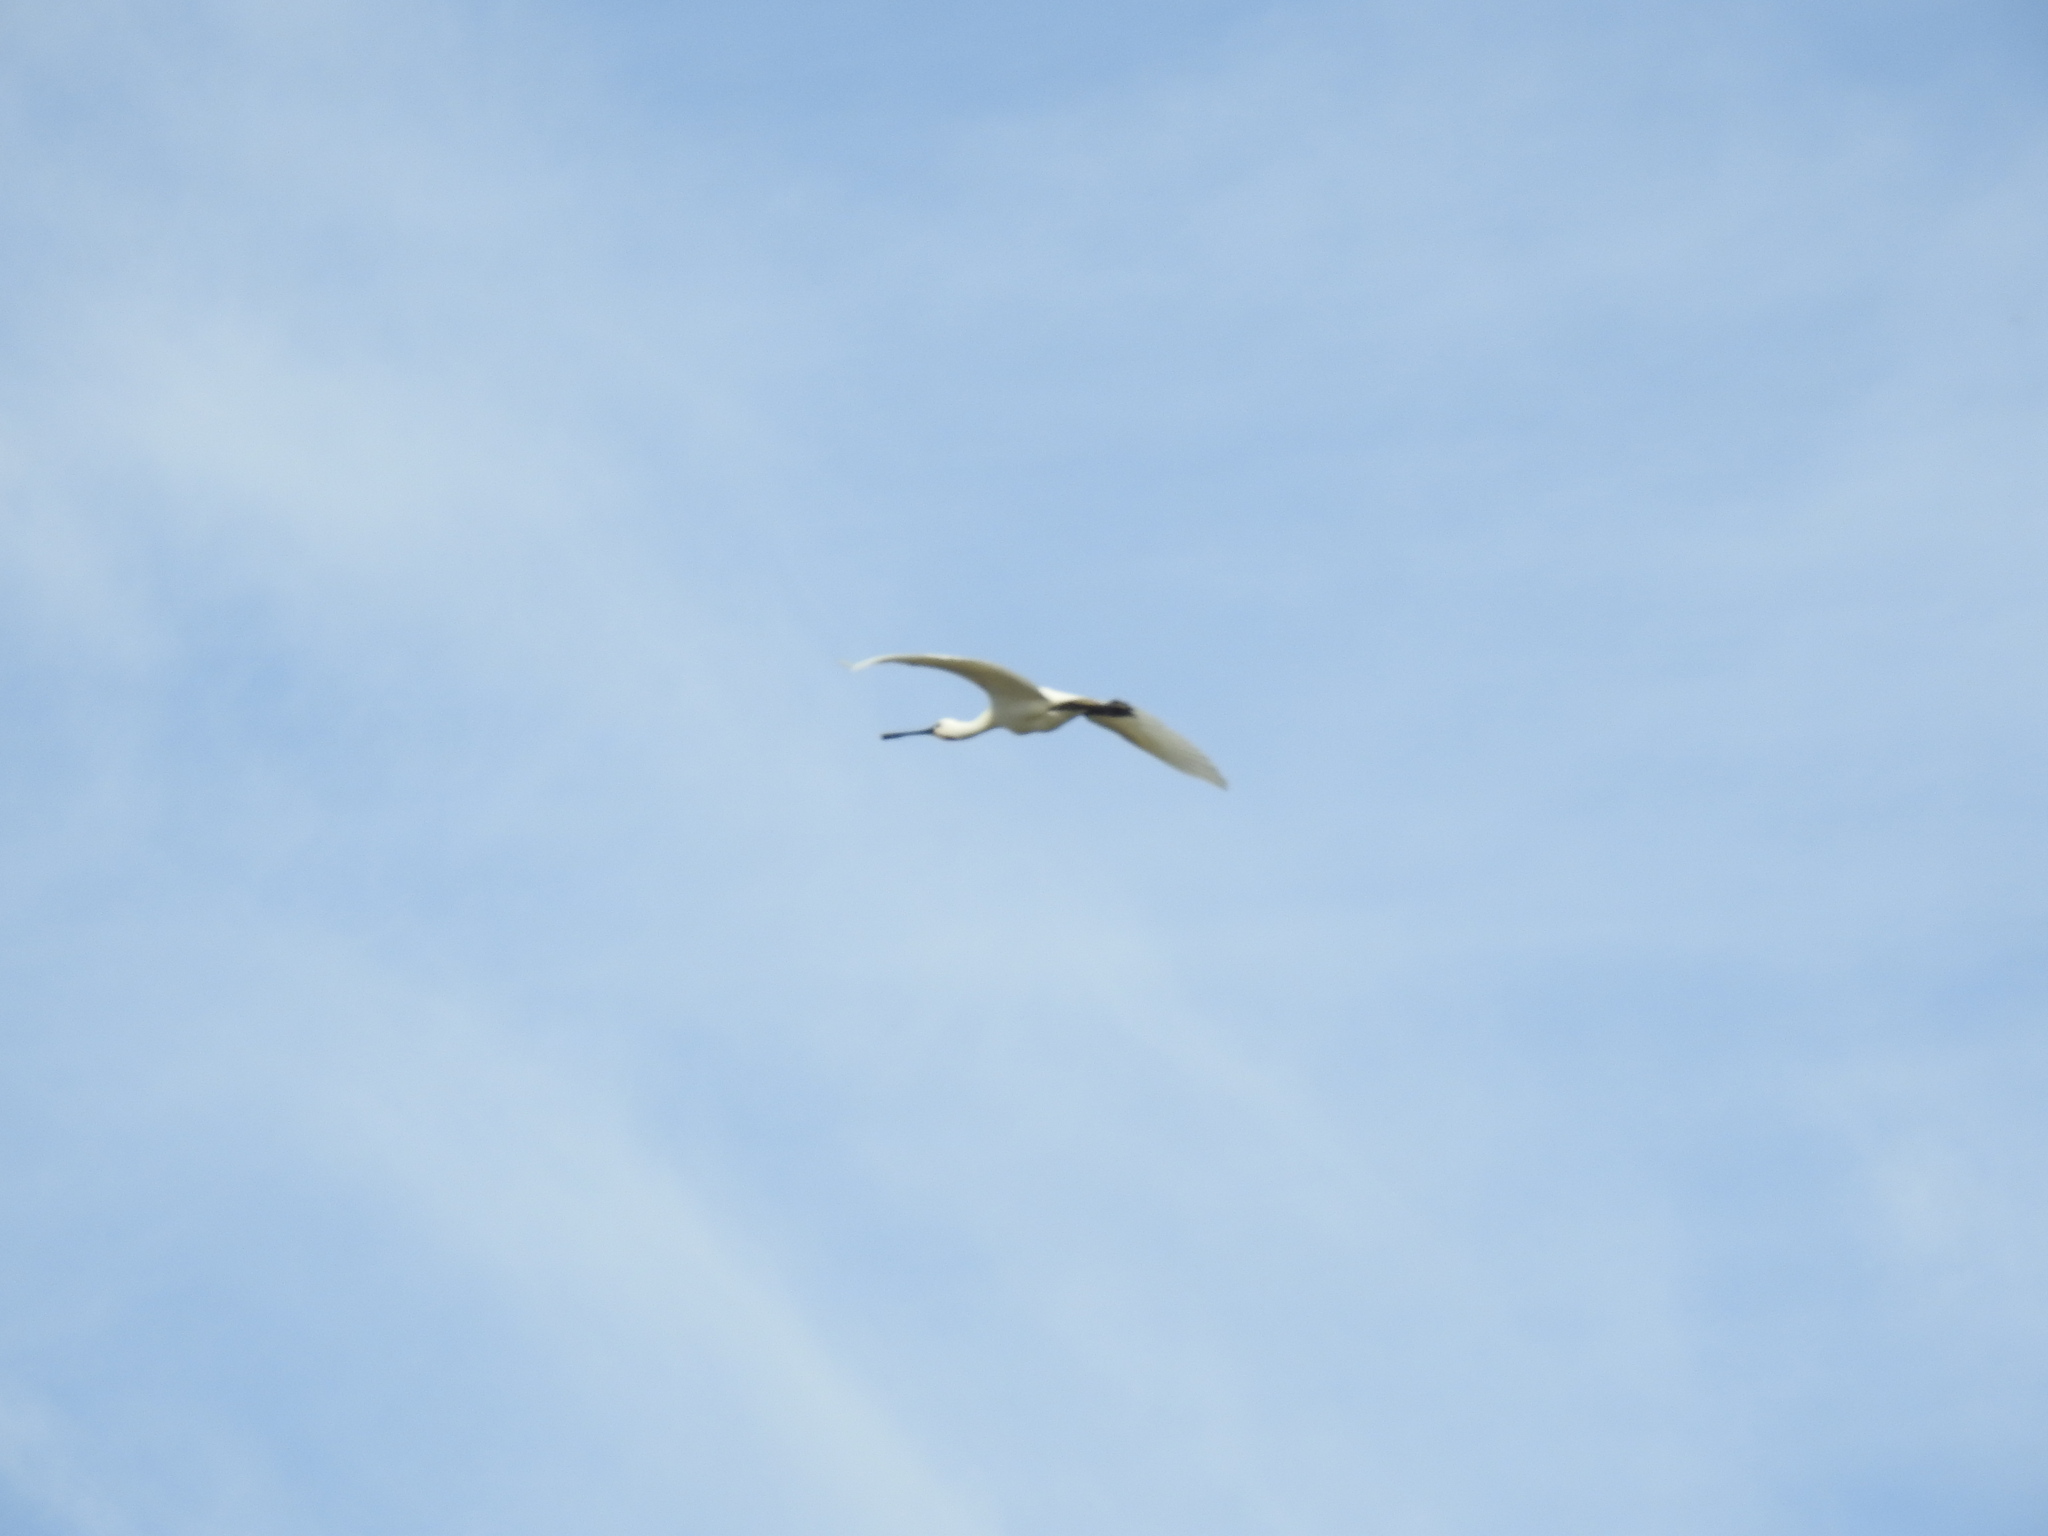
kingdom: Animalia
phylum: Chordata
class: Aves
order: Pelecaniformes
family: Threskiornithidae
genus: Platalea
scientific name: Platalea leucorodia
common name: Eurasian spoonbill
